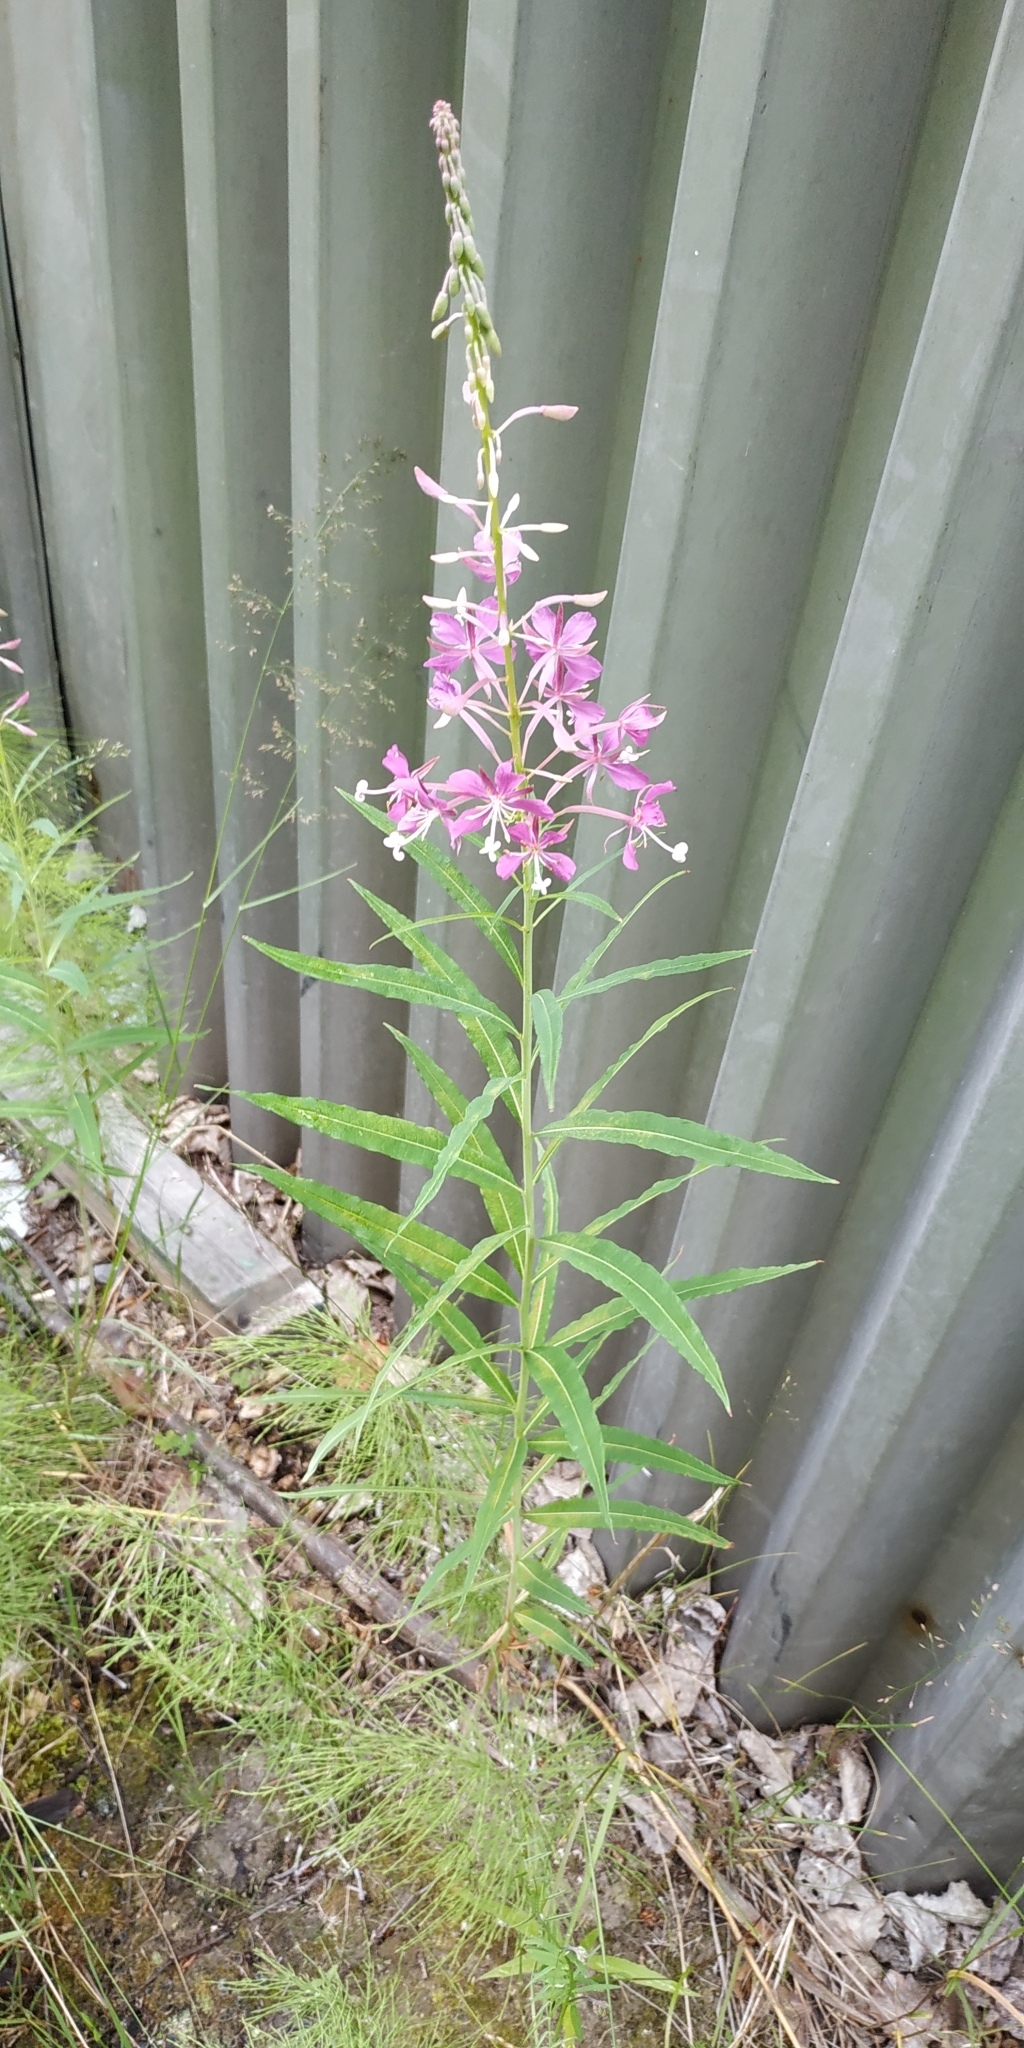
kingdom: Plantae
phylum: Tracheophyta
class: Magnoliopsida
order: Myrtales
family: Onagraceae
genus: Chamaenerion
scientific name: Chamaenerion angustifolium
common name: Fireweed
